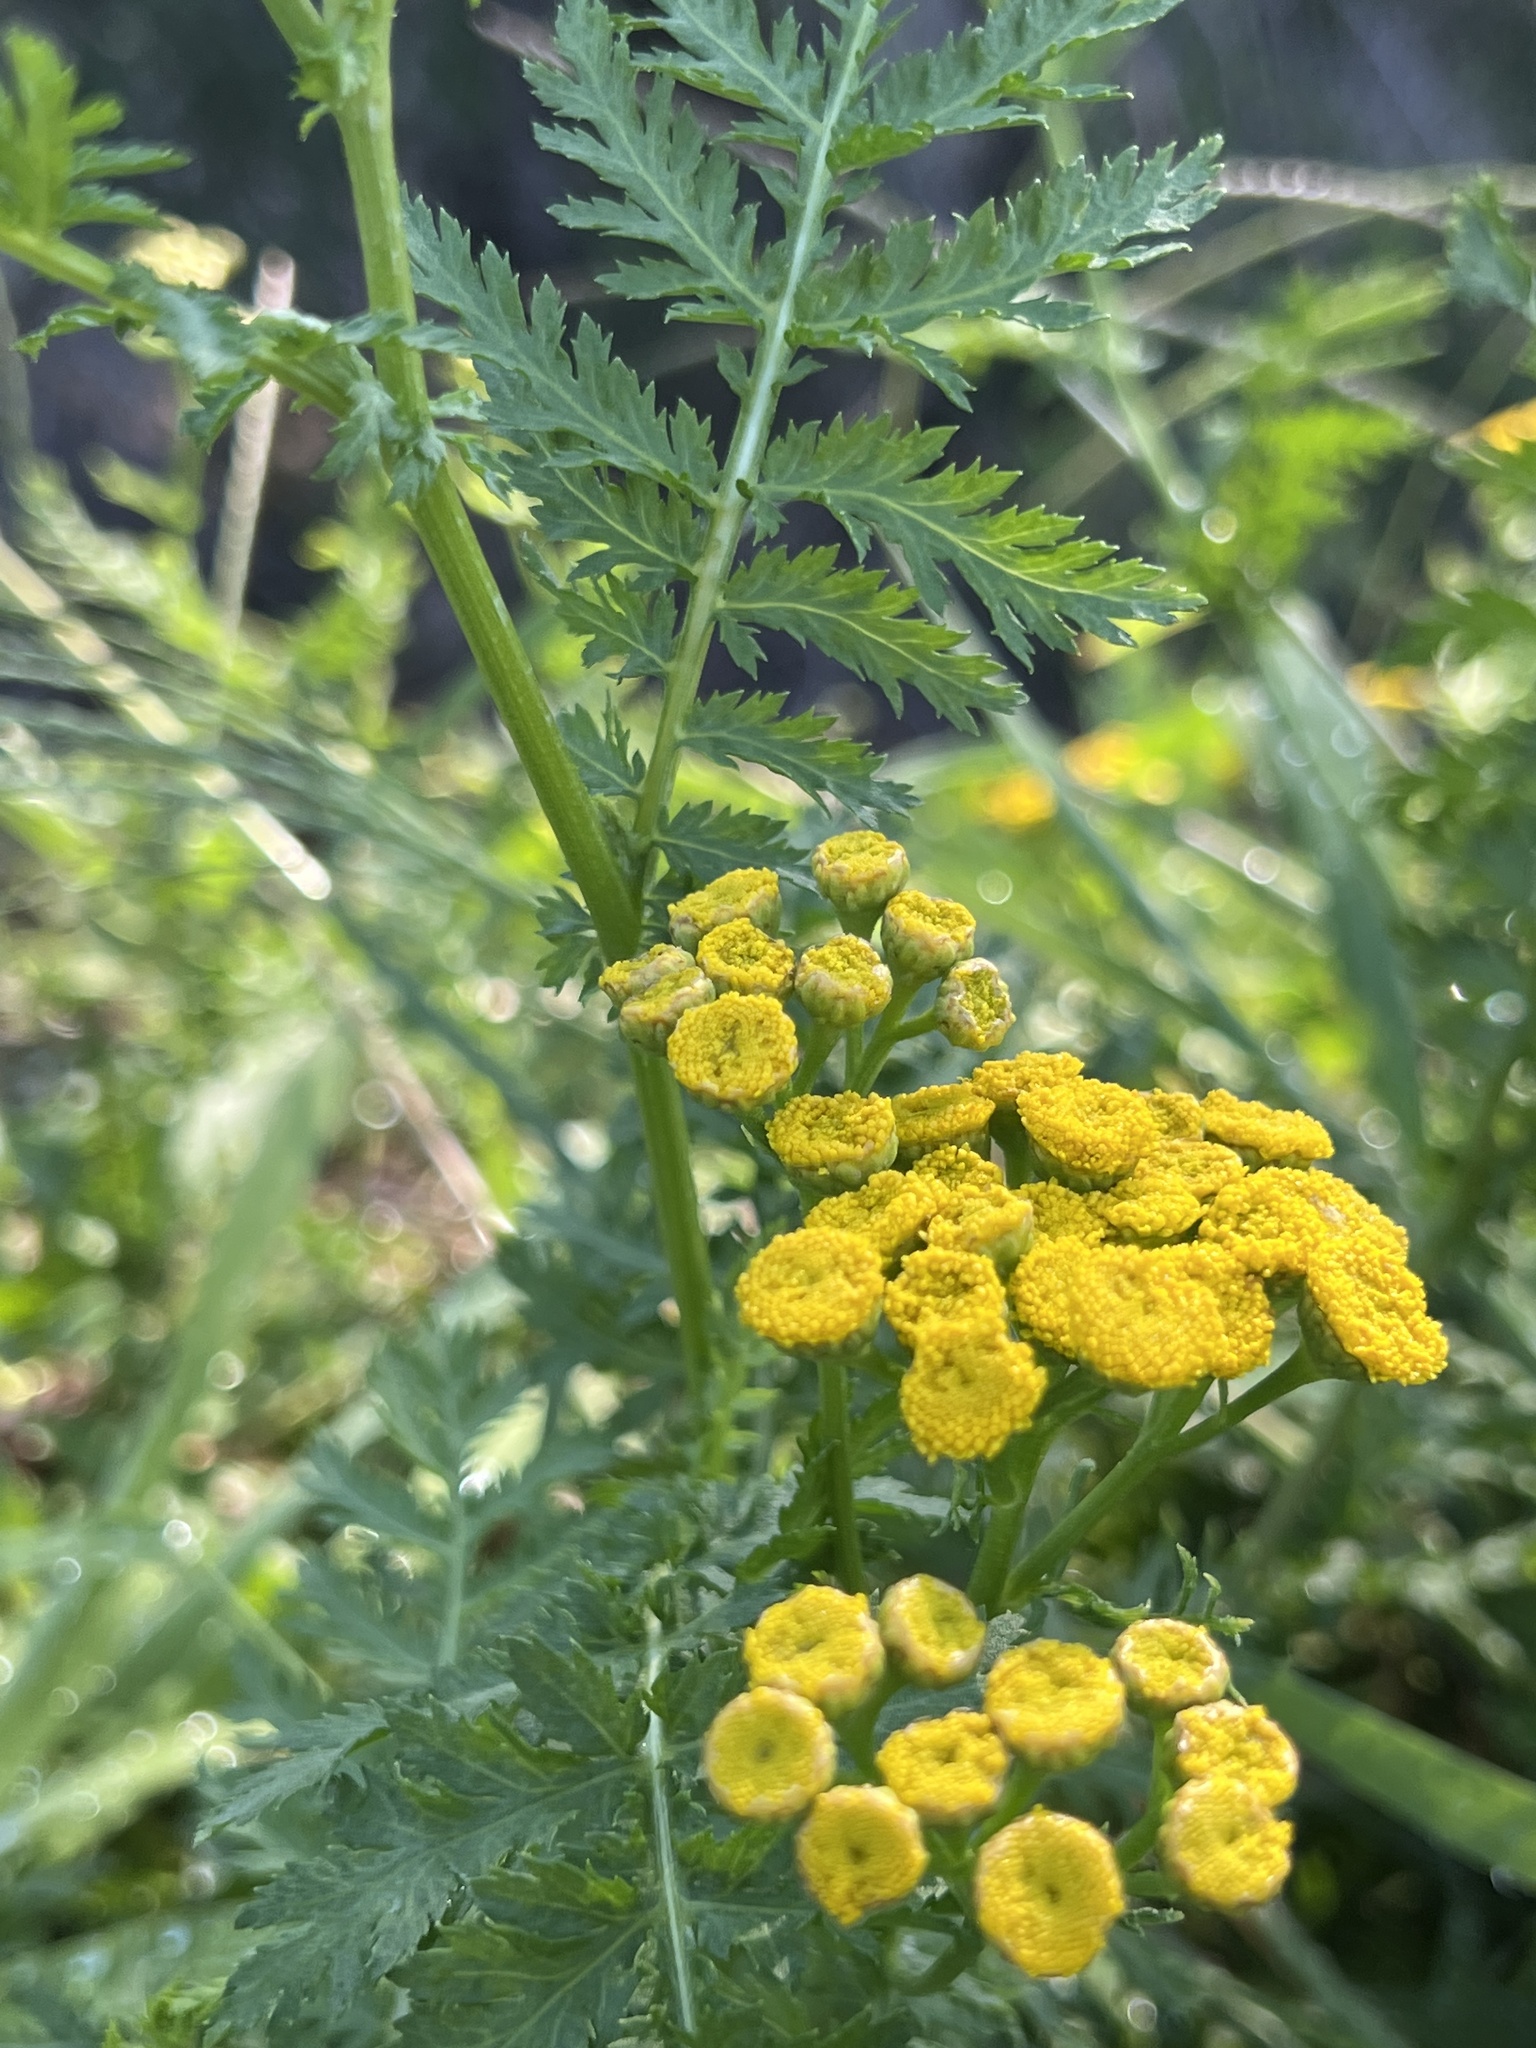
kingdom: Plantae
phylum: Tracheophyta
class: Magnoliopsida
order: Asterales
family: Asteraceae
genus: Tanacetum
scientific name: Tanacetum vulgare
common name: Common tansy
